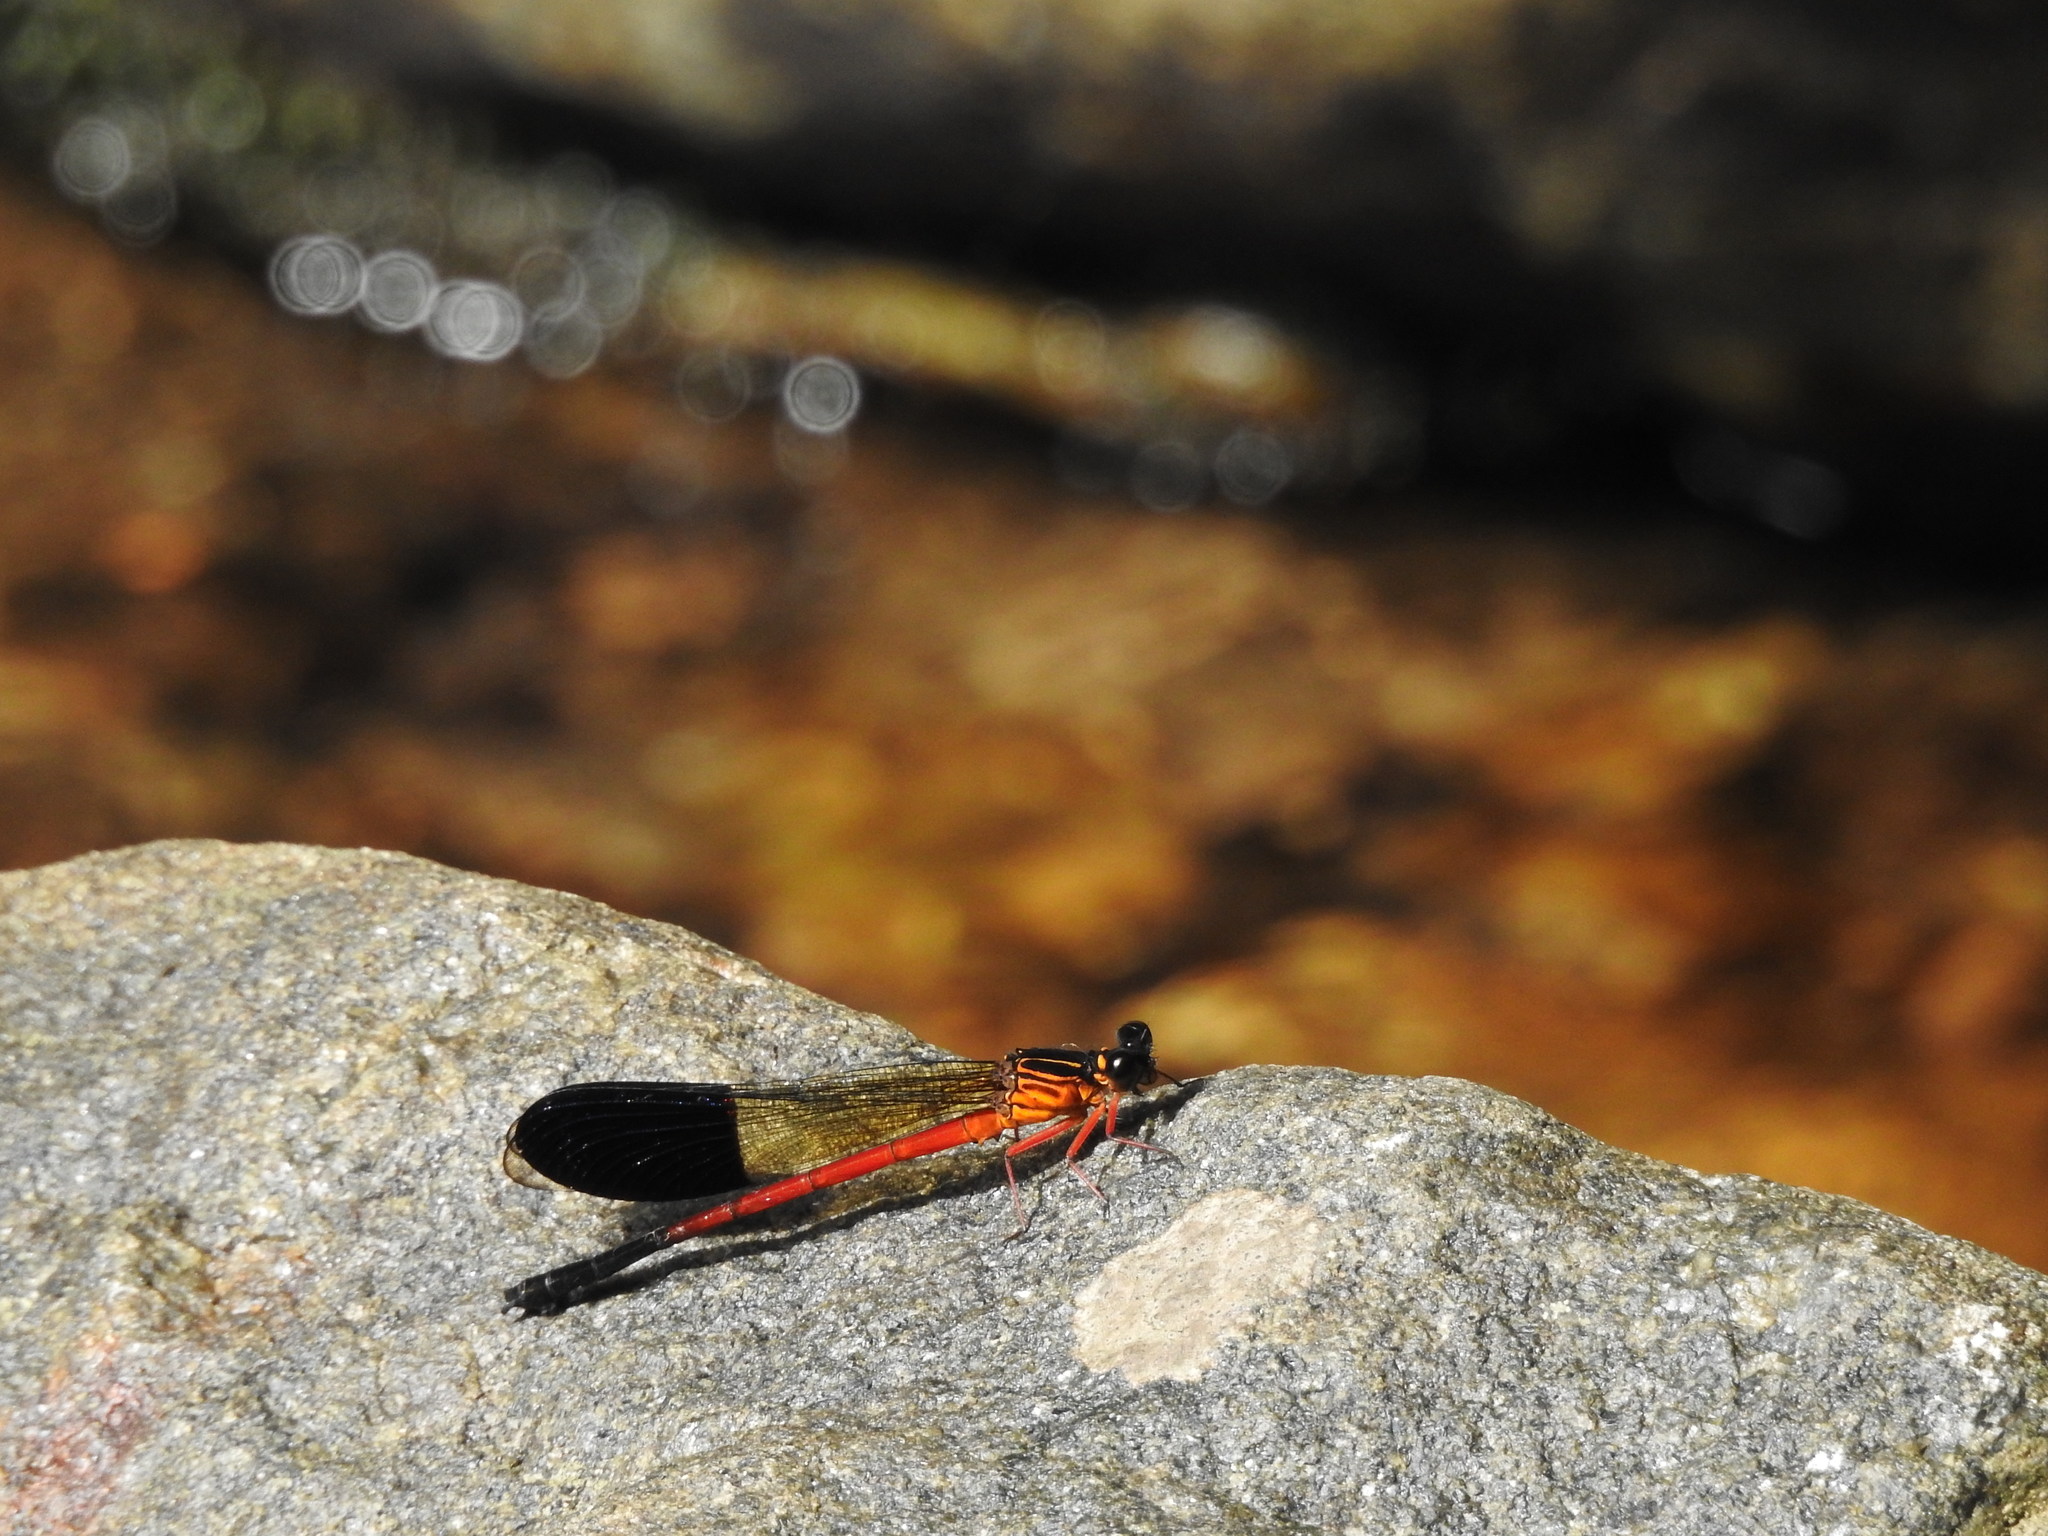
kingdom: Animalia
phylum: Arthropoda
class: Insecta
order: Odonata
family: Euphaeidae
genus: Euphaea
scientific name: Euphaea cardinalis
